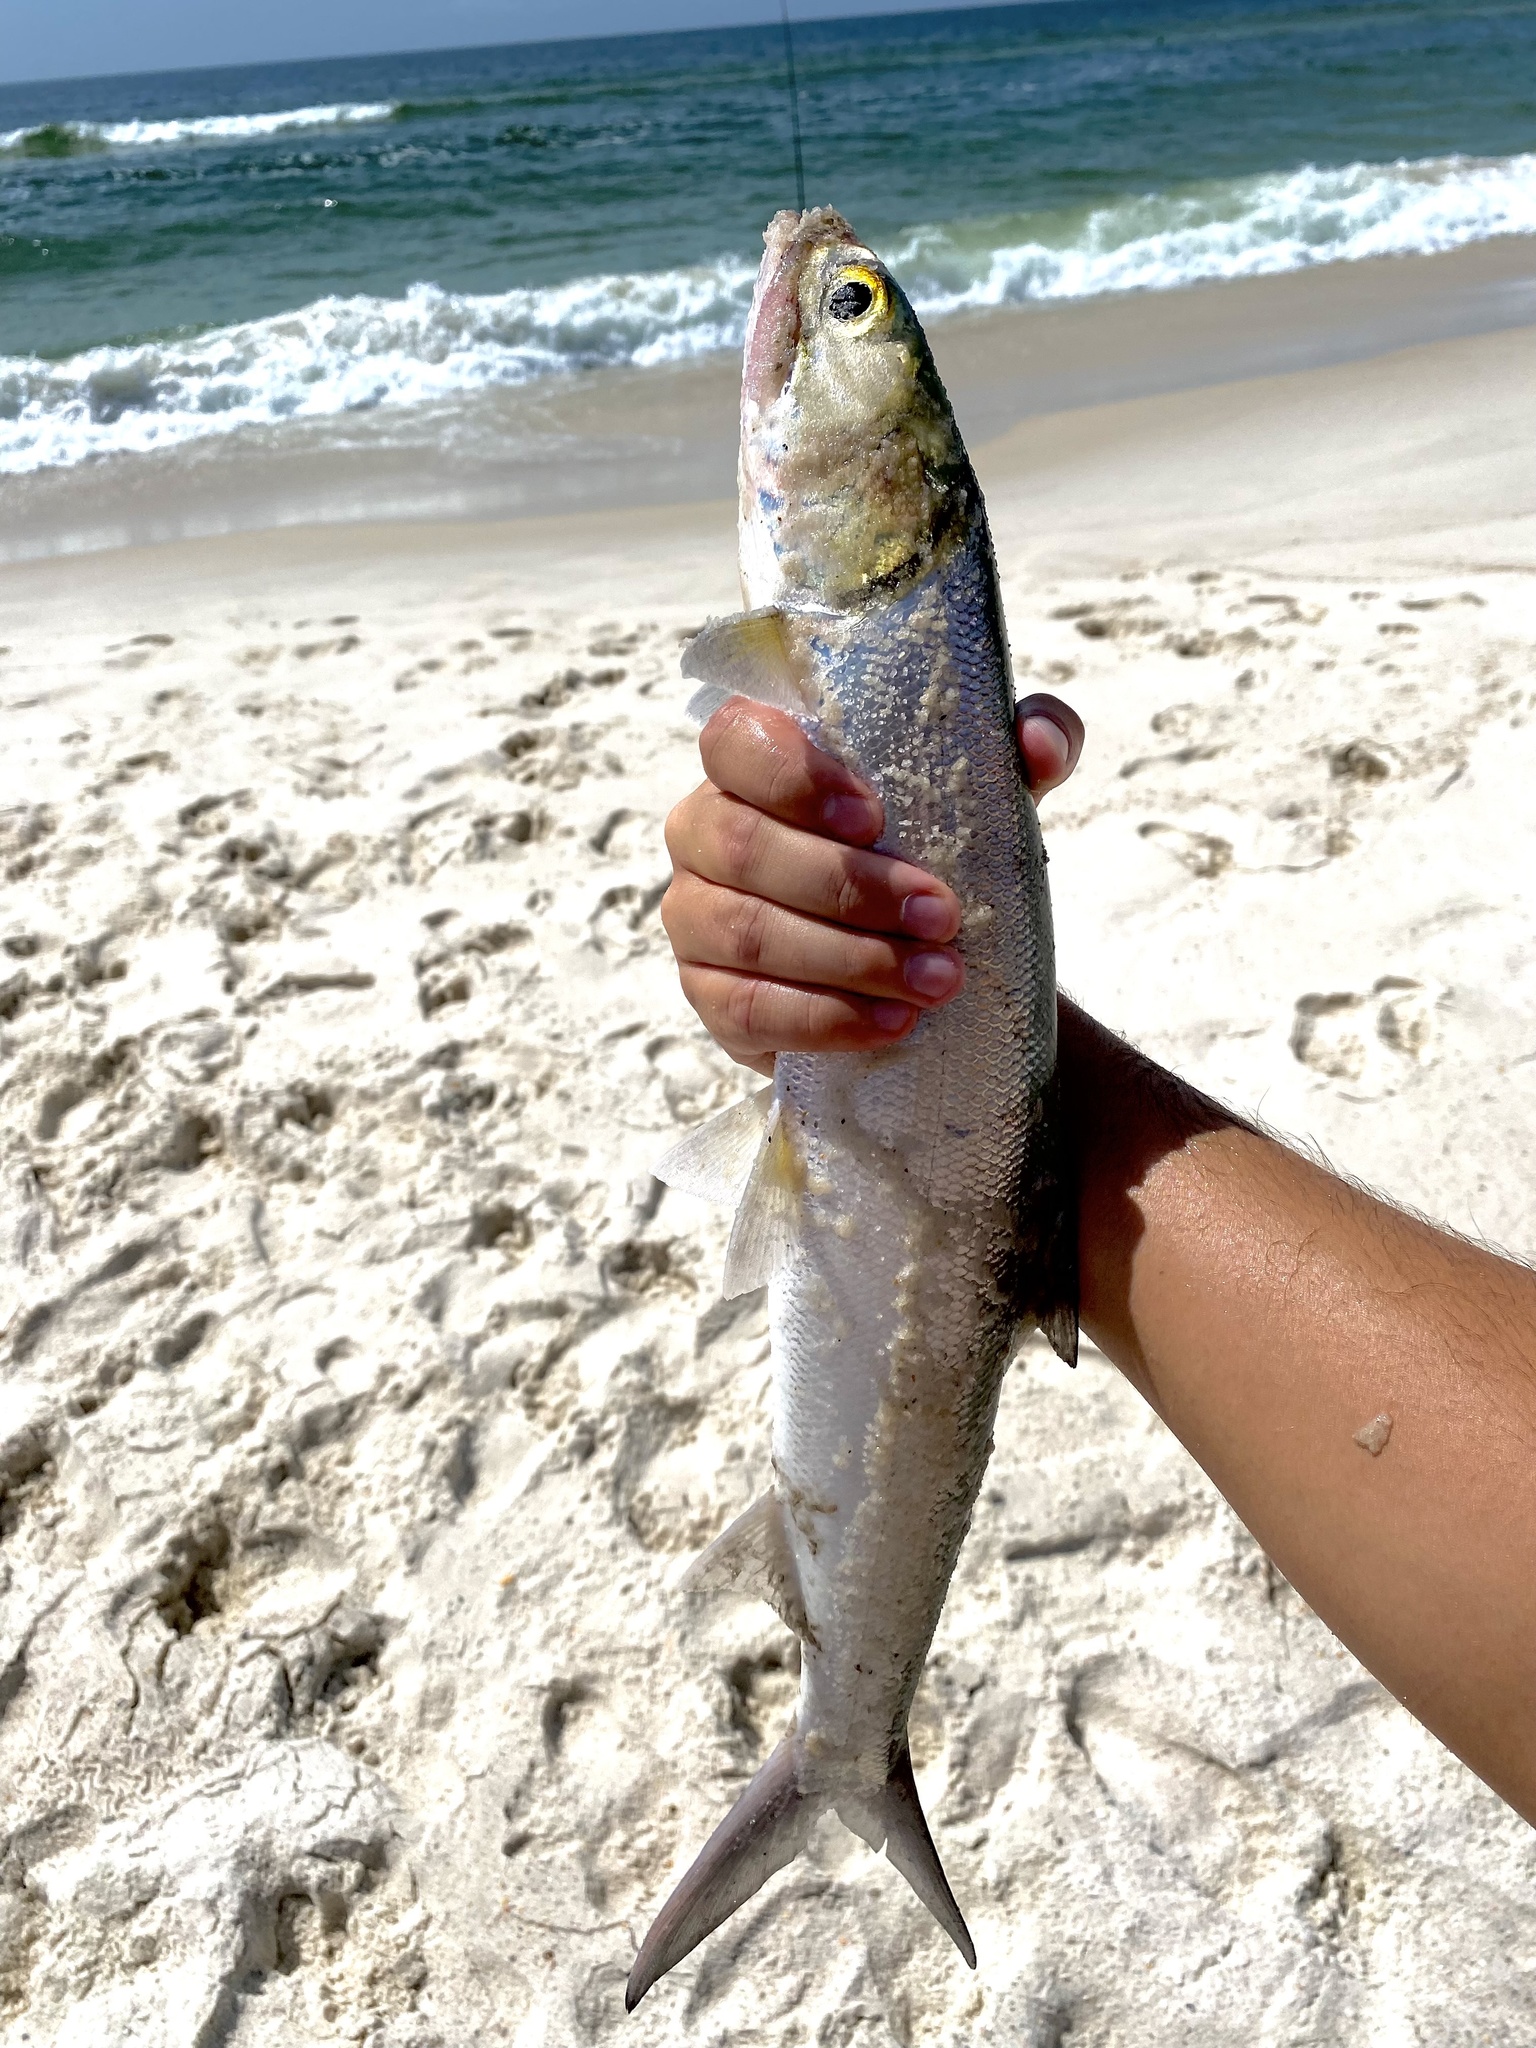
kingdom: Animalia
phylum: Chordata
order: Elopiformes
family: Elopidae
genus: Elops
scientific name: Elops saurus
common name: Ladyfish
